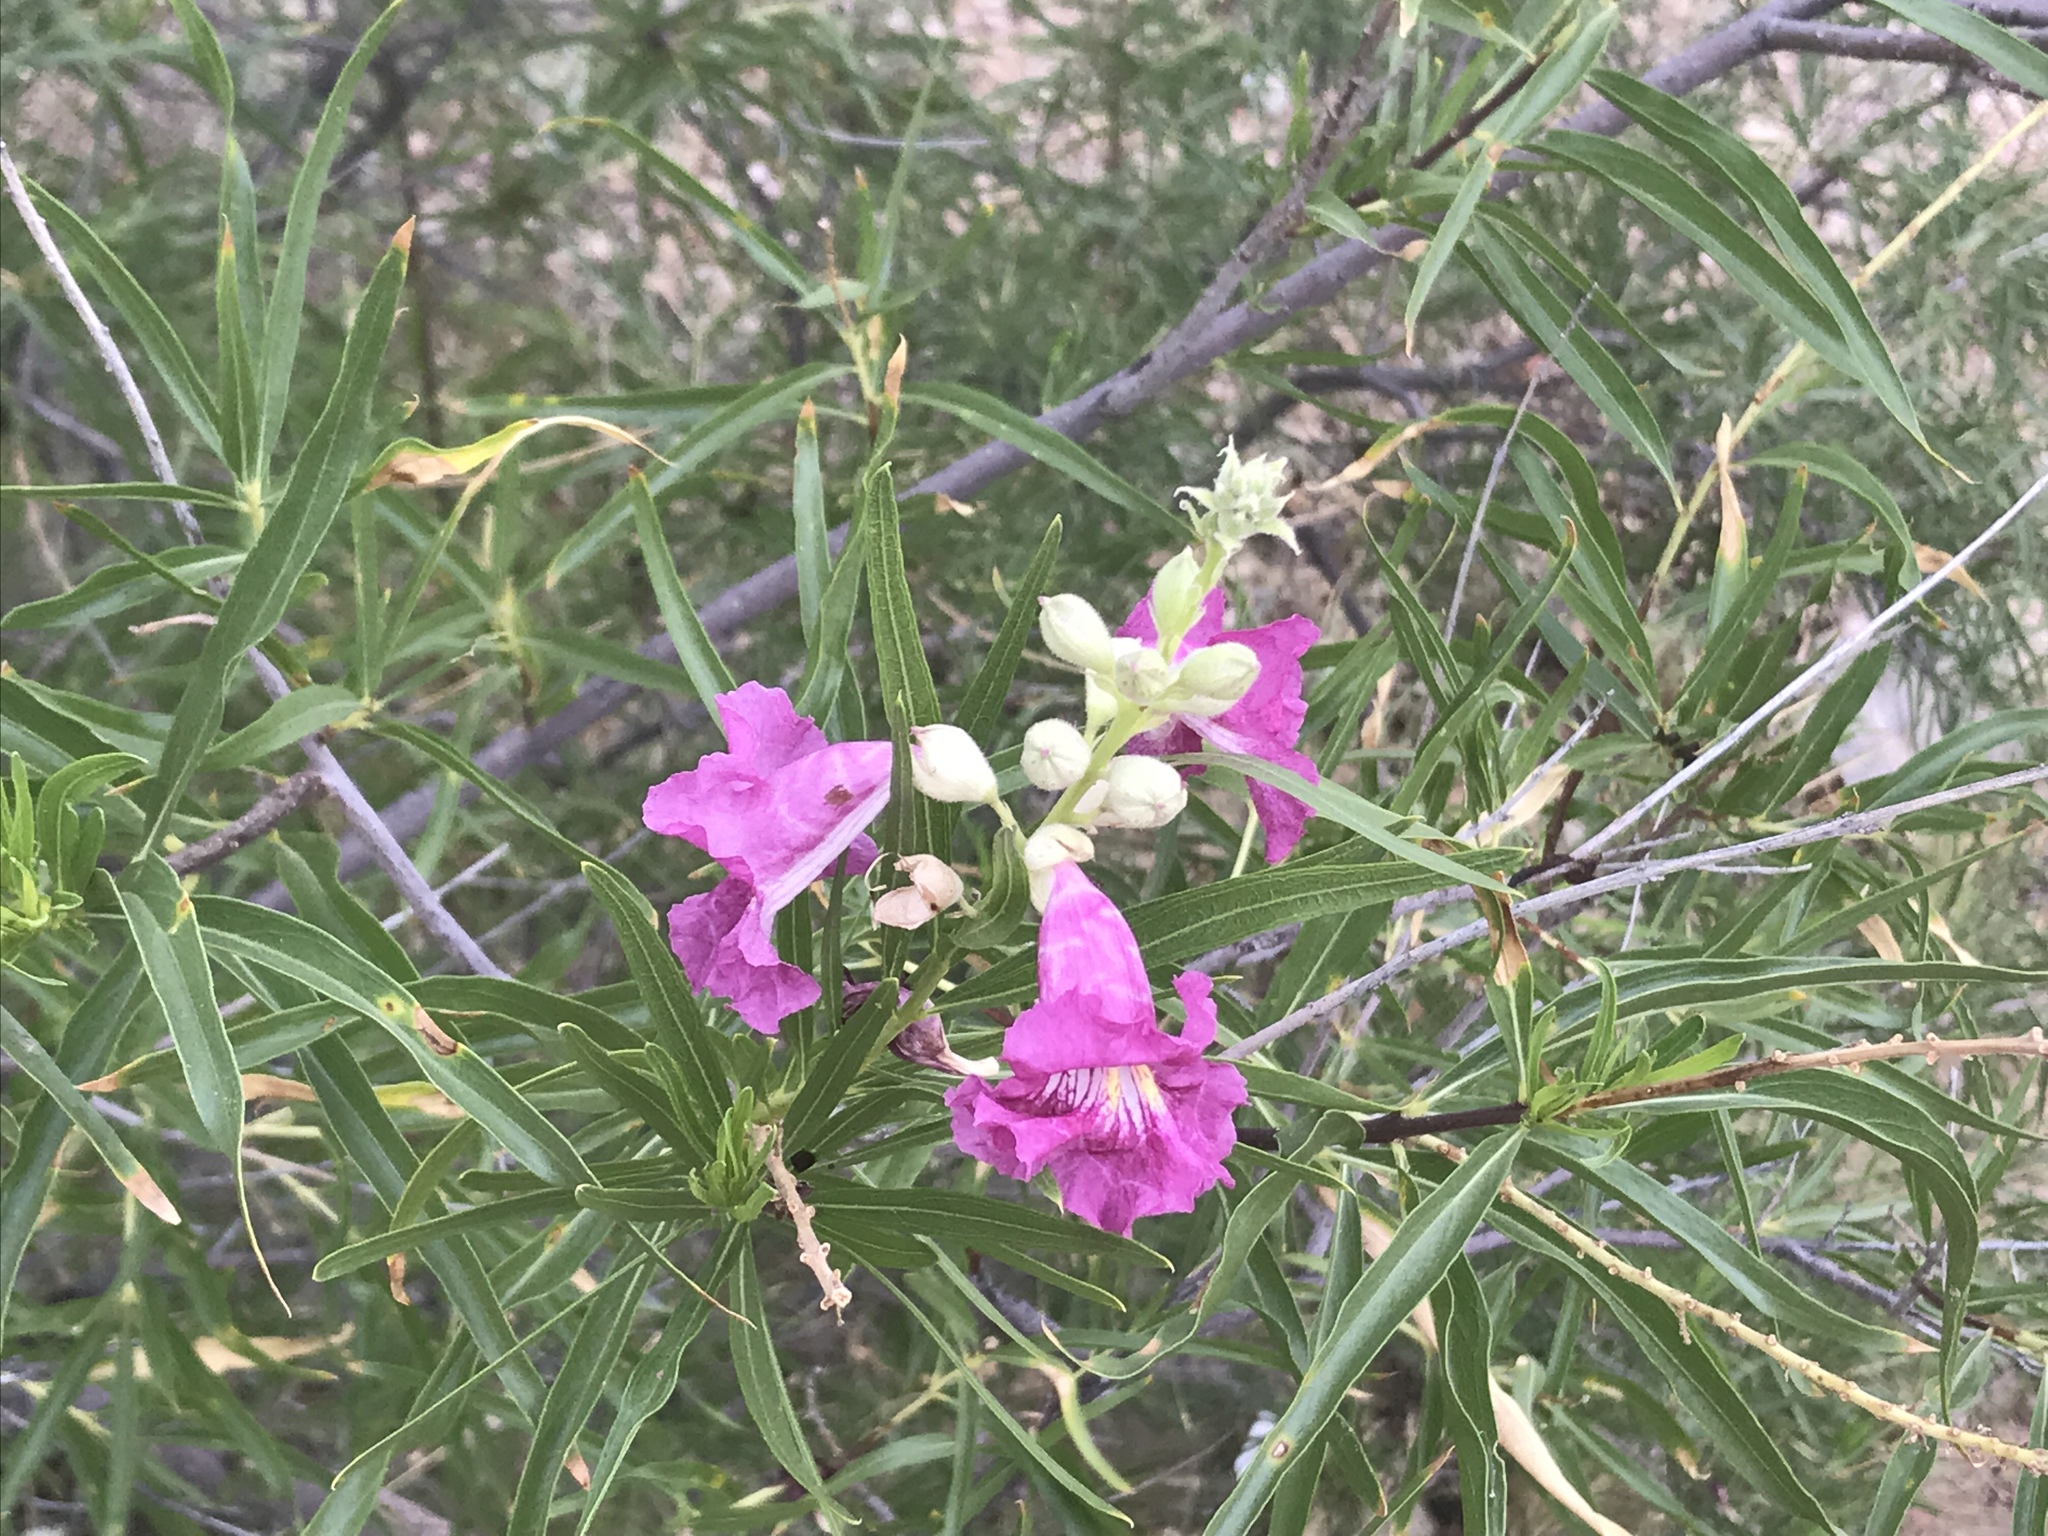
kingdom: Plantae
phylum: Tracheophyta
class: Magnoliopsida
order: Lamiales
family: Bignoniaceae
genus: Chilopsis
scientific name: Chilopsis linearis
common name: Desert-willow
